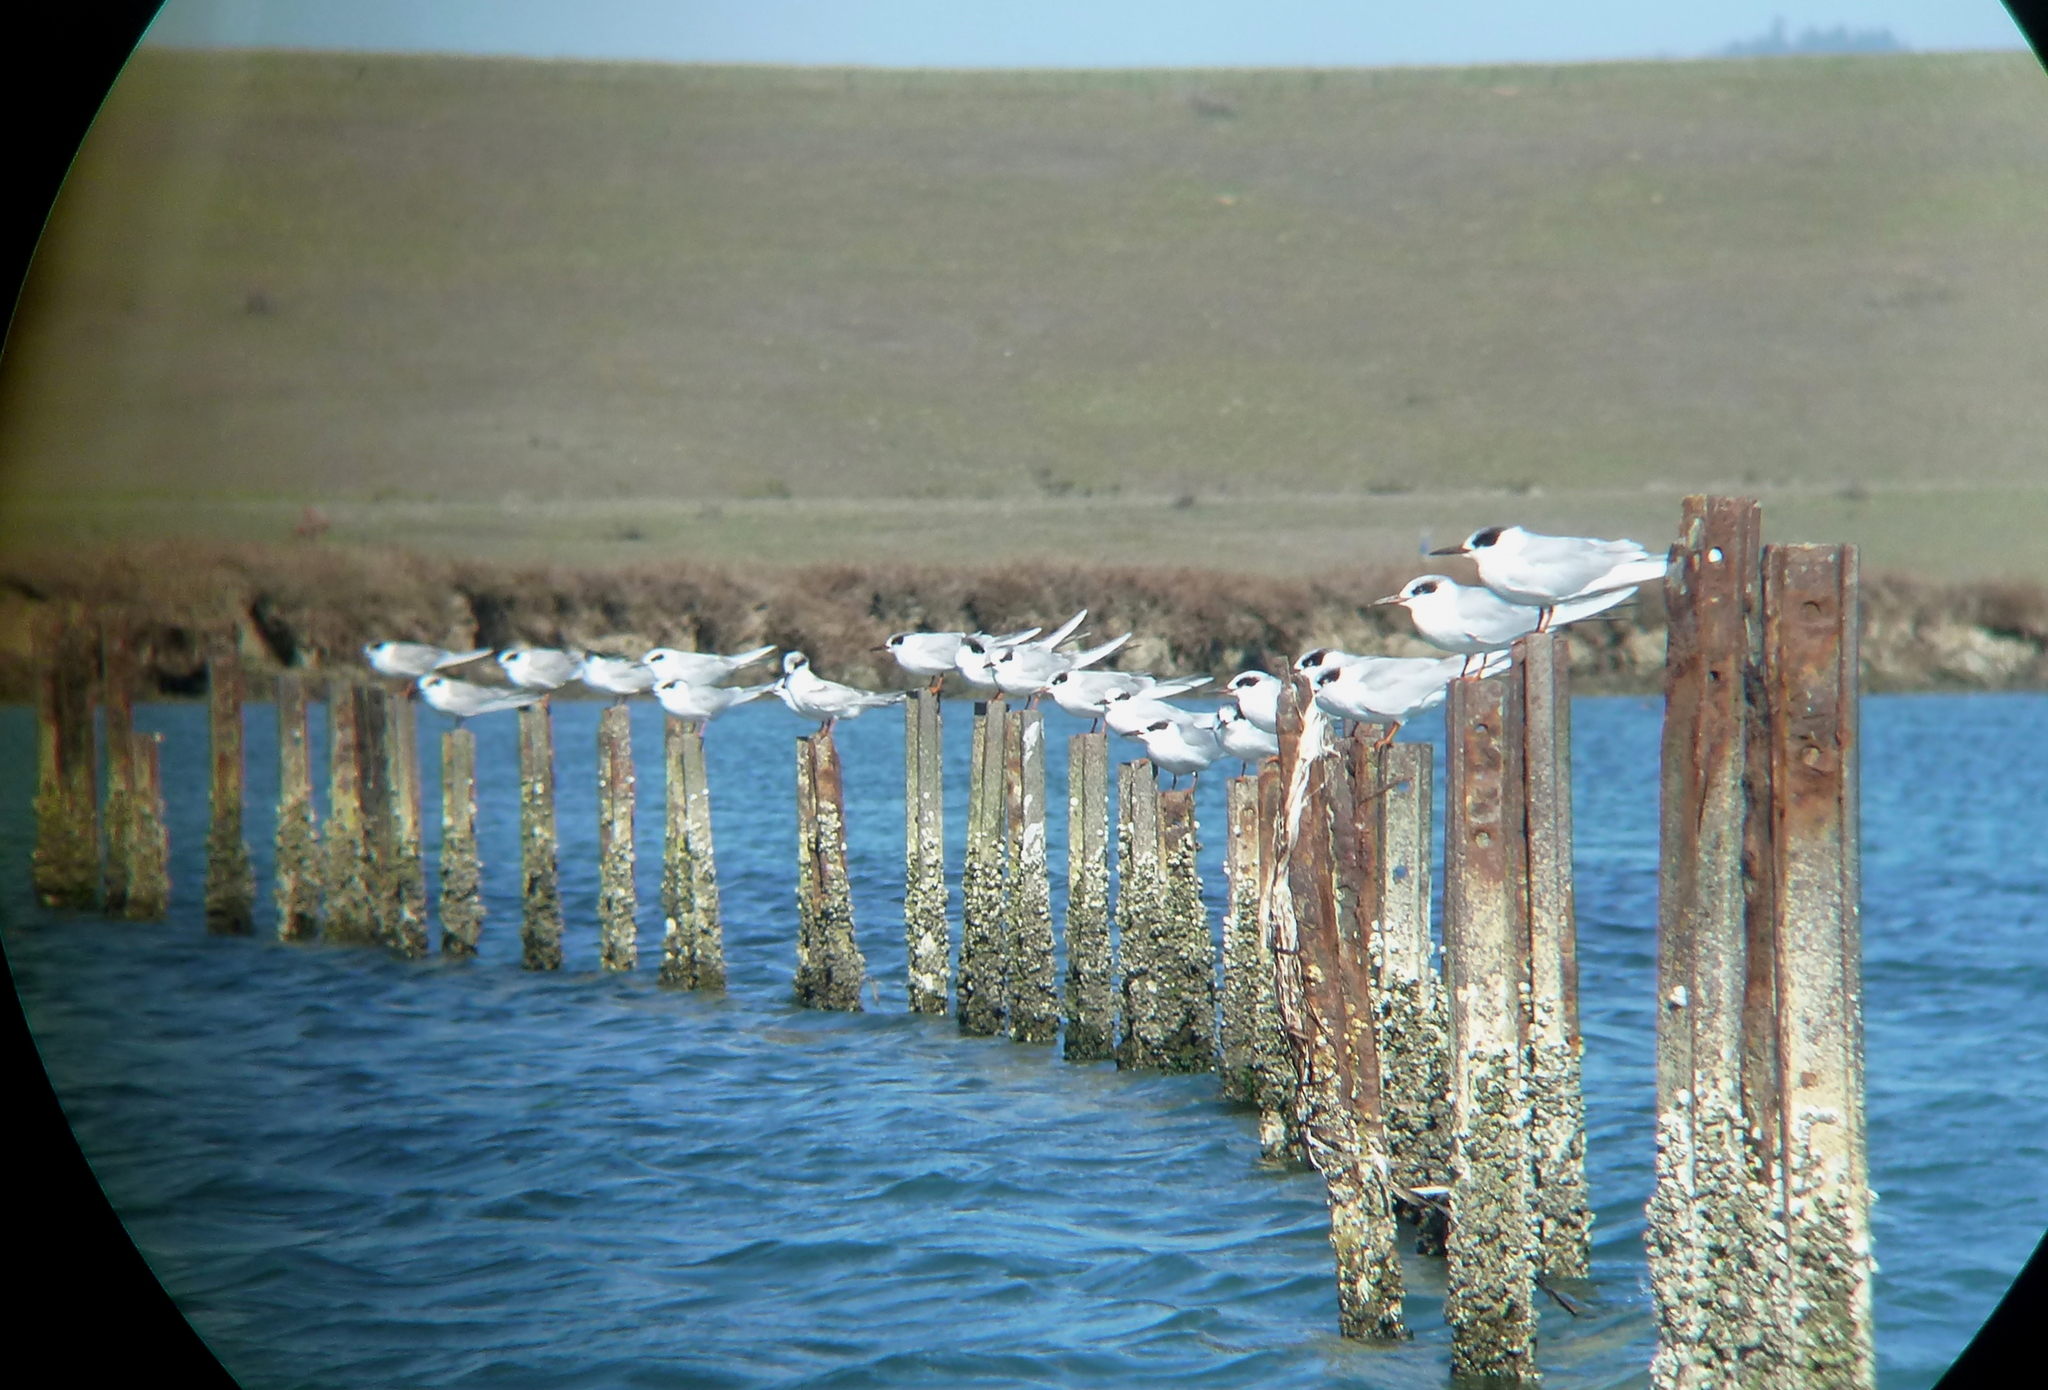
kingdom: Animalia
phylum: Chordata
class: Aves
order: Charadriiformes
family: Laridae
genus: Sterna
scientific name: Sterna forsteri
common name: Forster's tern
